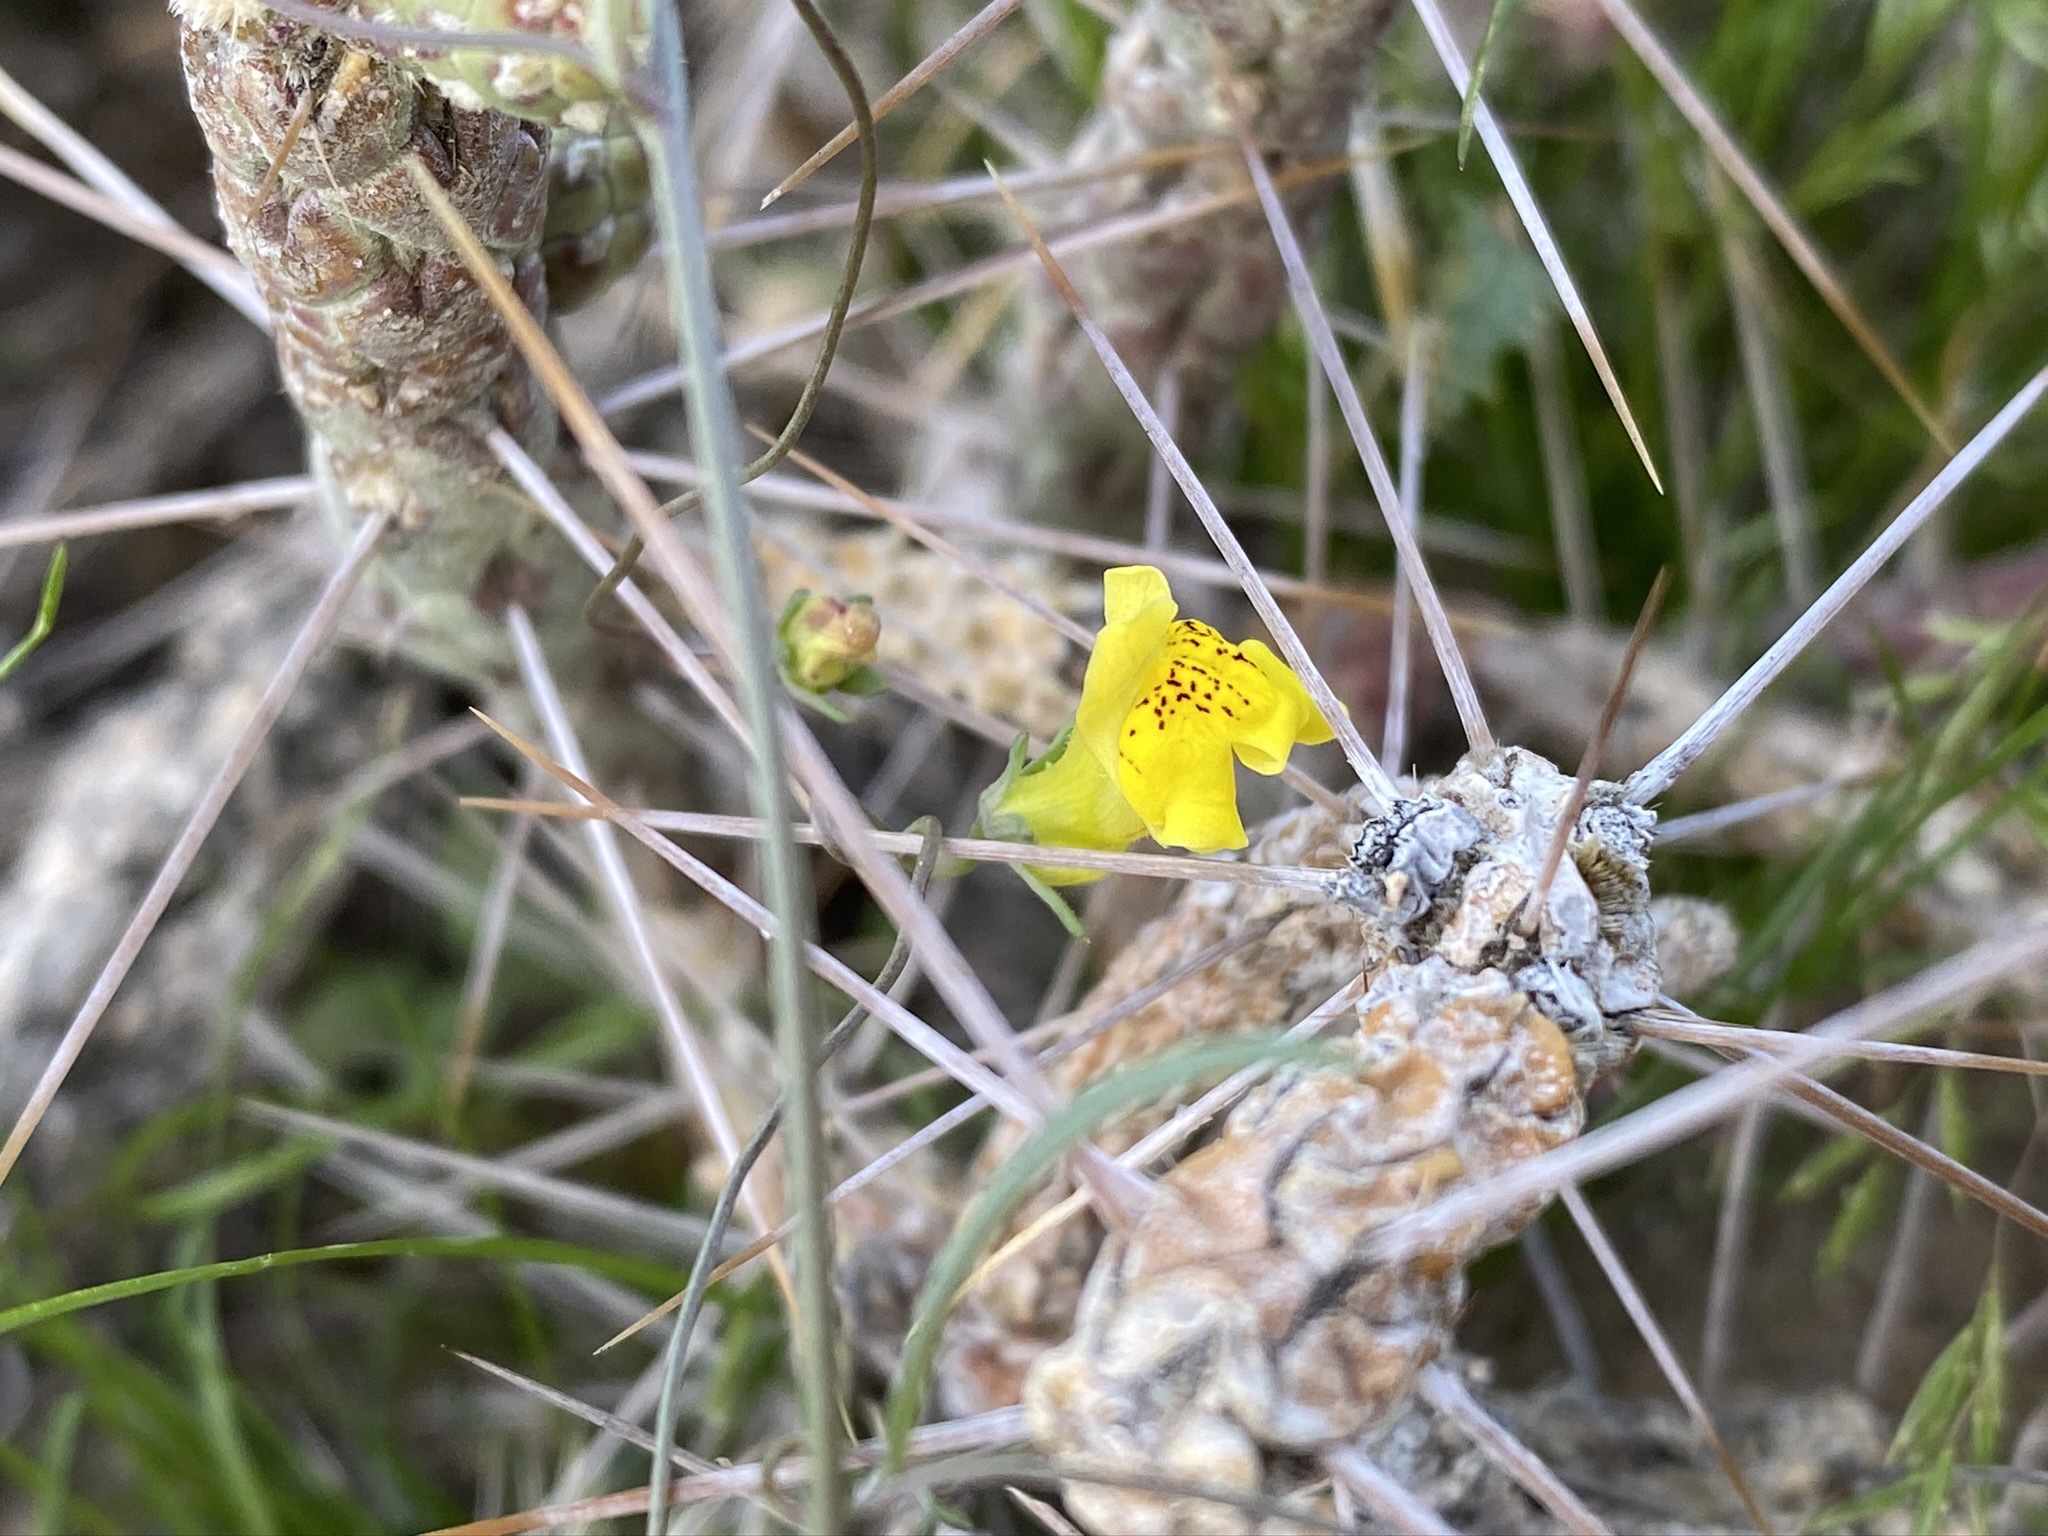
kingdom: Plantae
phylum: Tracheophyta
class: Magnoliopsida
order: Lamiales
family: Plantaginaceae
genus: Neogaerrhinum
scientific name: Neogaerrhinum filipes
